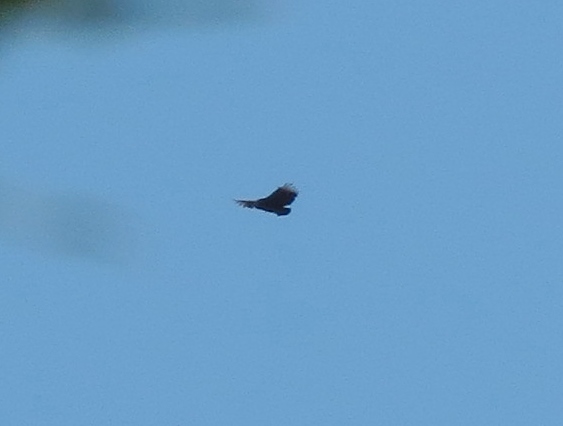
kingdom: Animalia
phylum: Chordata
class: Aves
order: Accipitriformes
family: Cathartidae
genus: Coragyps
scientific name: Coragyps atratus
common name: Black vulture
